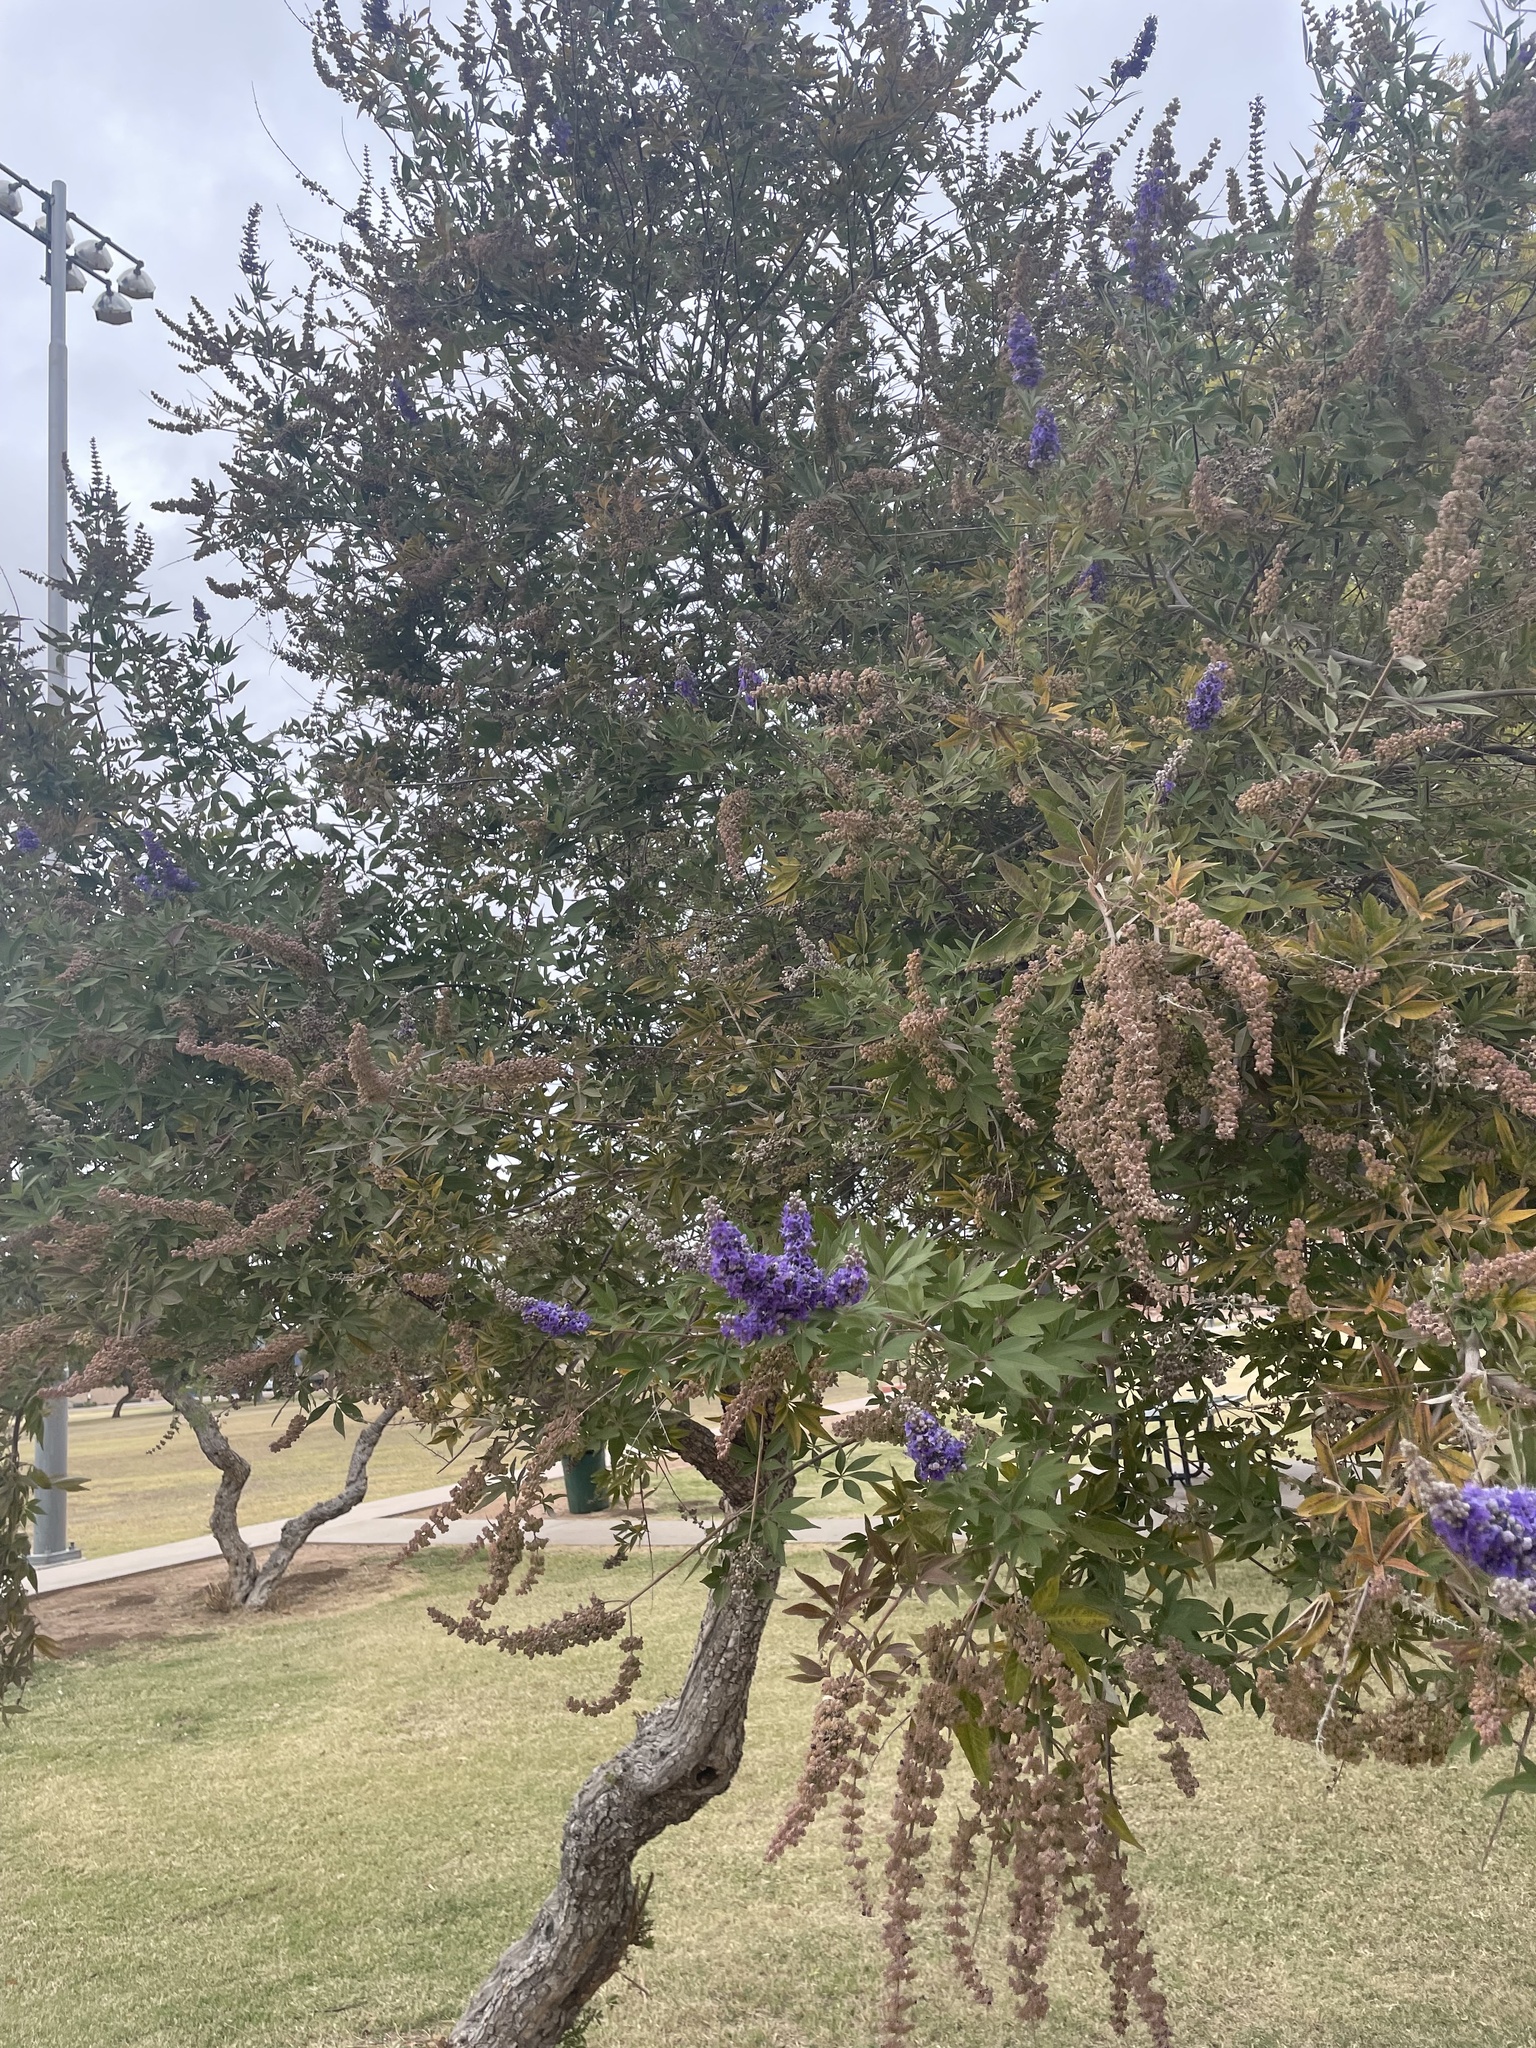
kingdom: Plantae
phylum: Tracheophyta
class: Magnoliopsida
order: Lamiales
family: Lamiaceae
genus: Vitex
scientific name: Vitex agnus-castus
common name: Chasteberry
